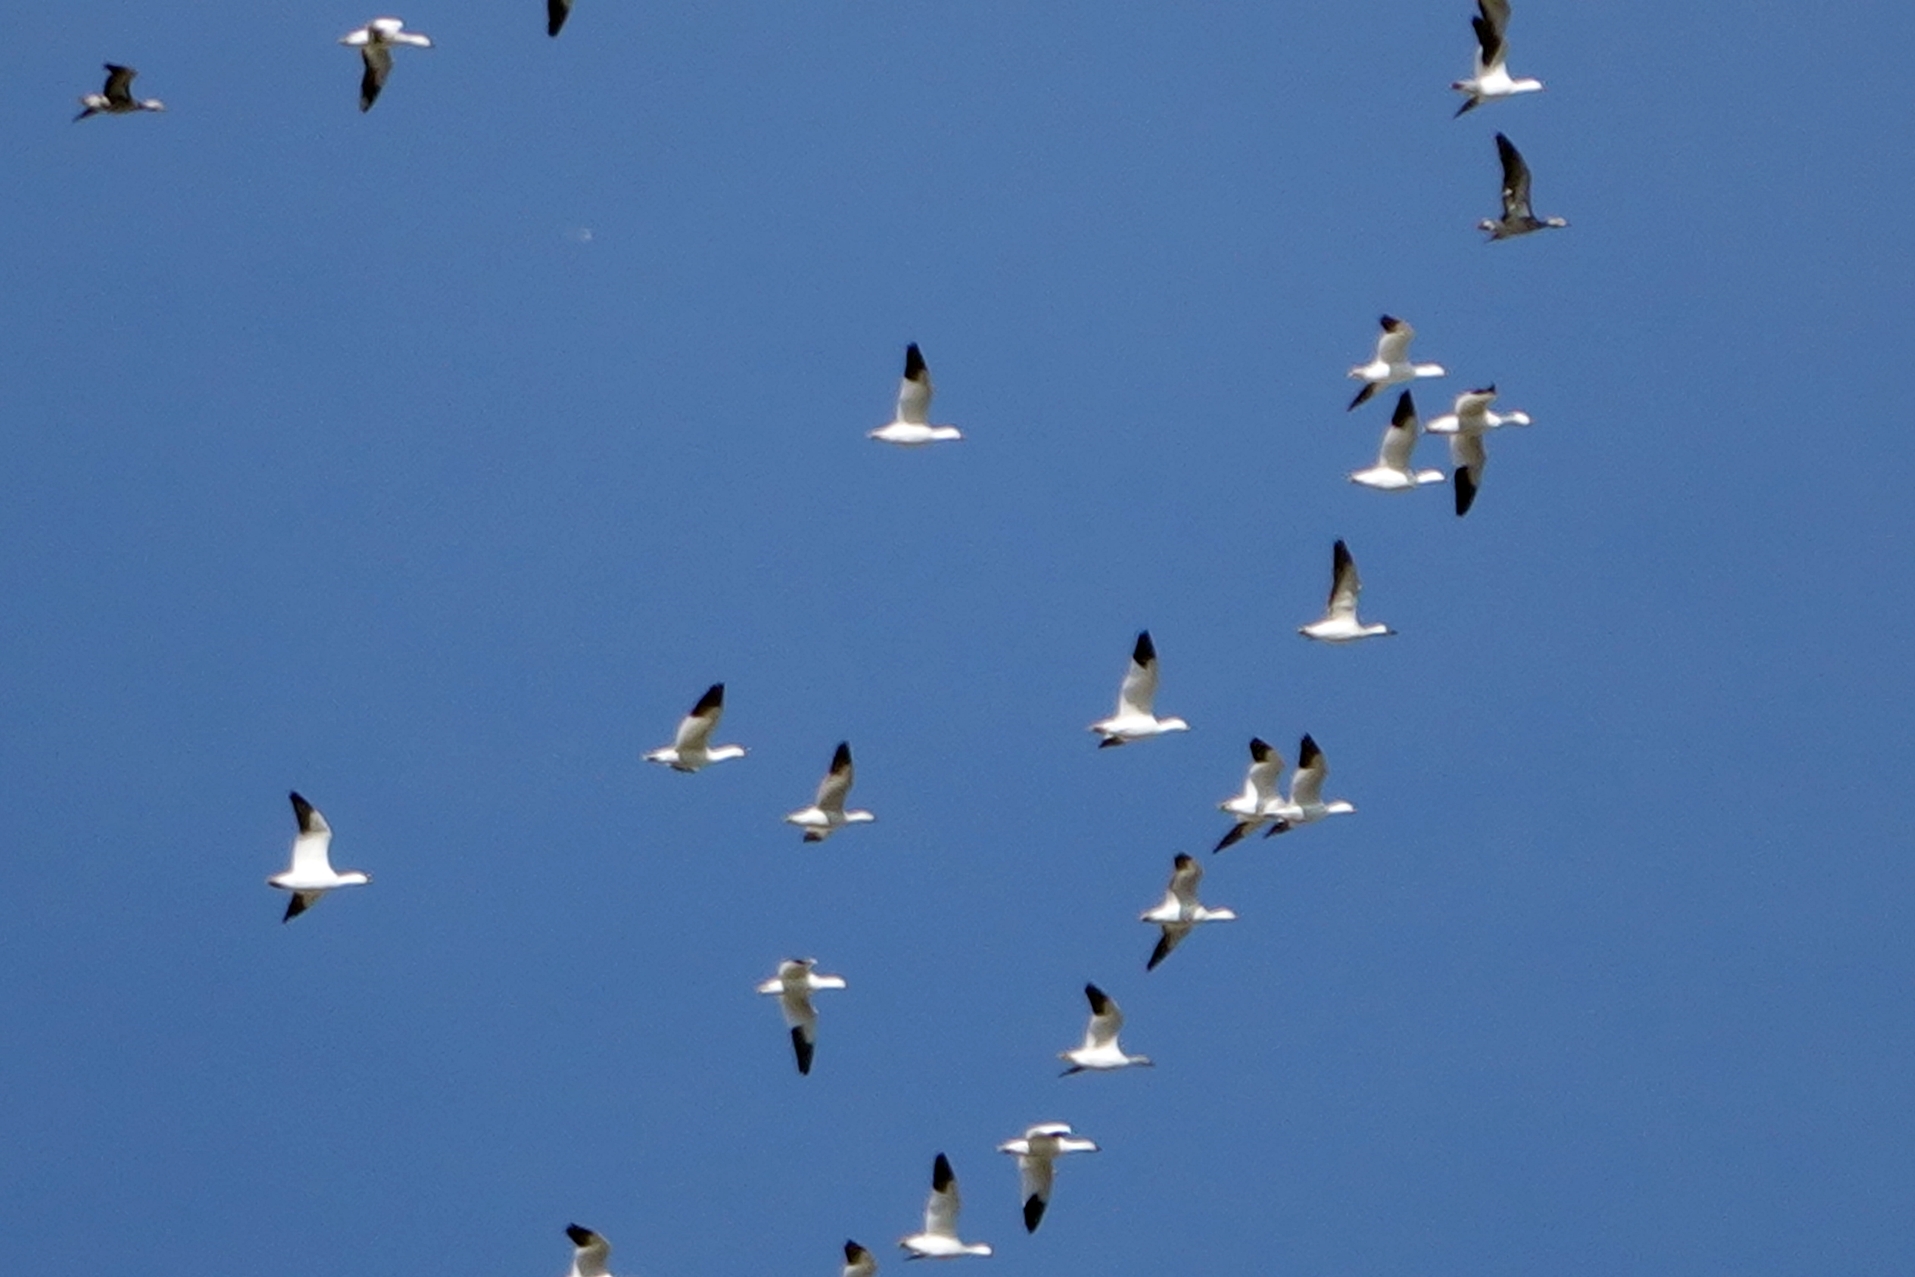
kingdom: Animalia
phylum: Chordata
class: Aves
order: Anseriformes
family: Anatidae
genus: Anser
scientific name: Anser caerulescens
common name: Snow goose
